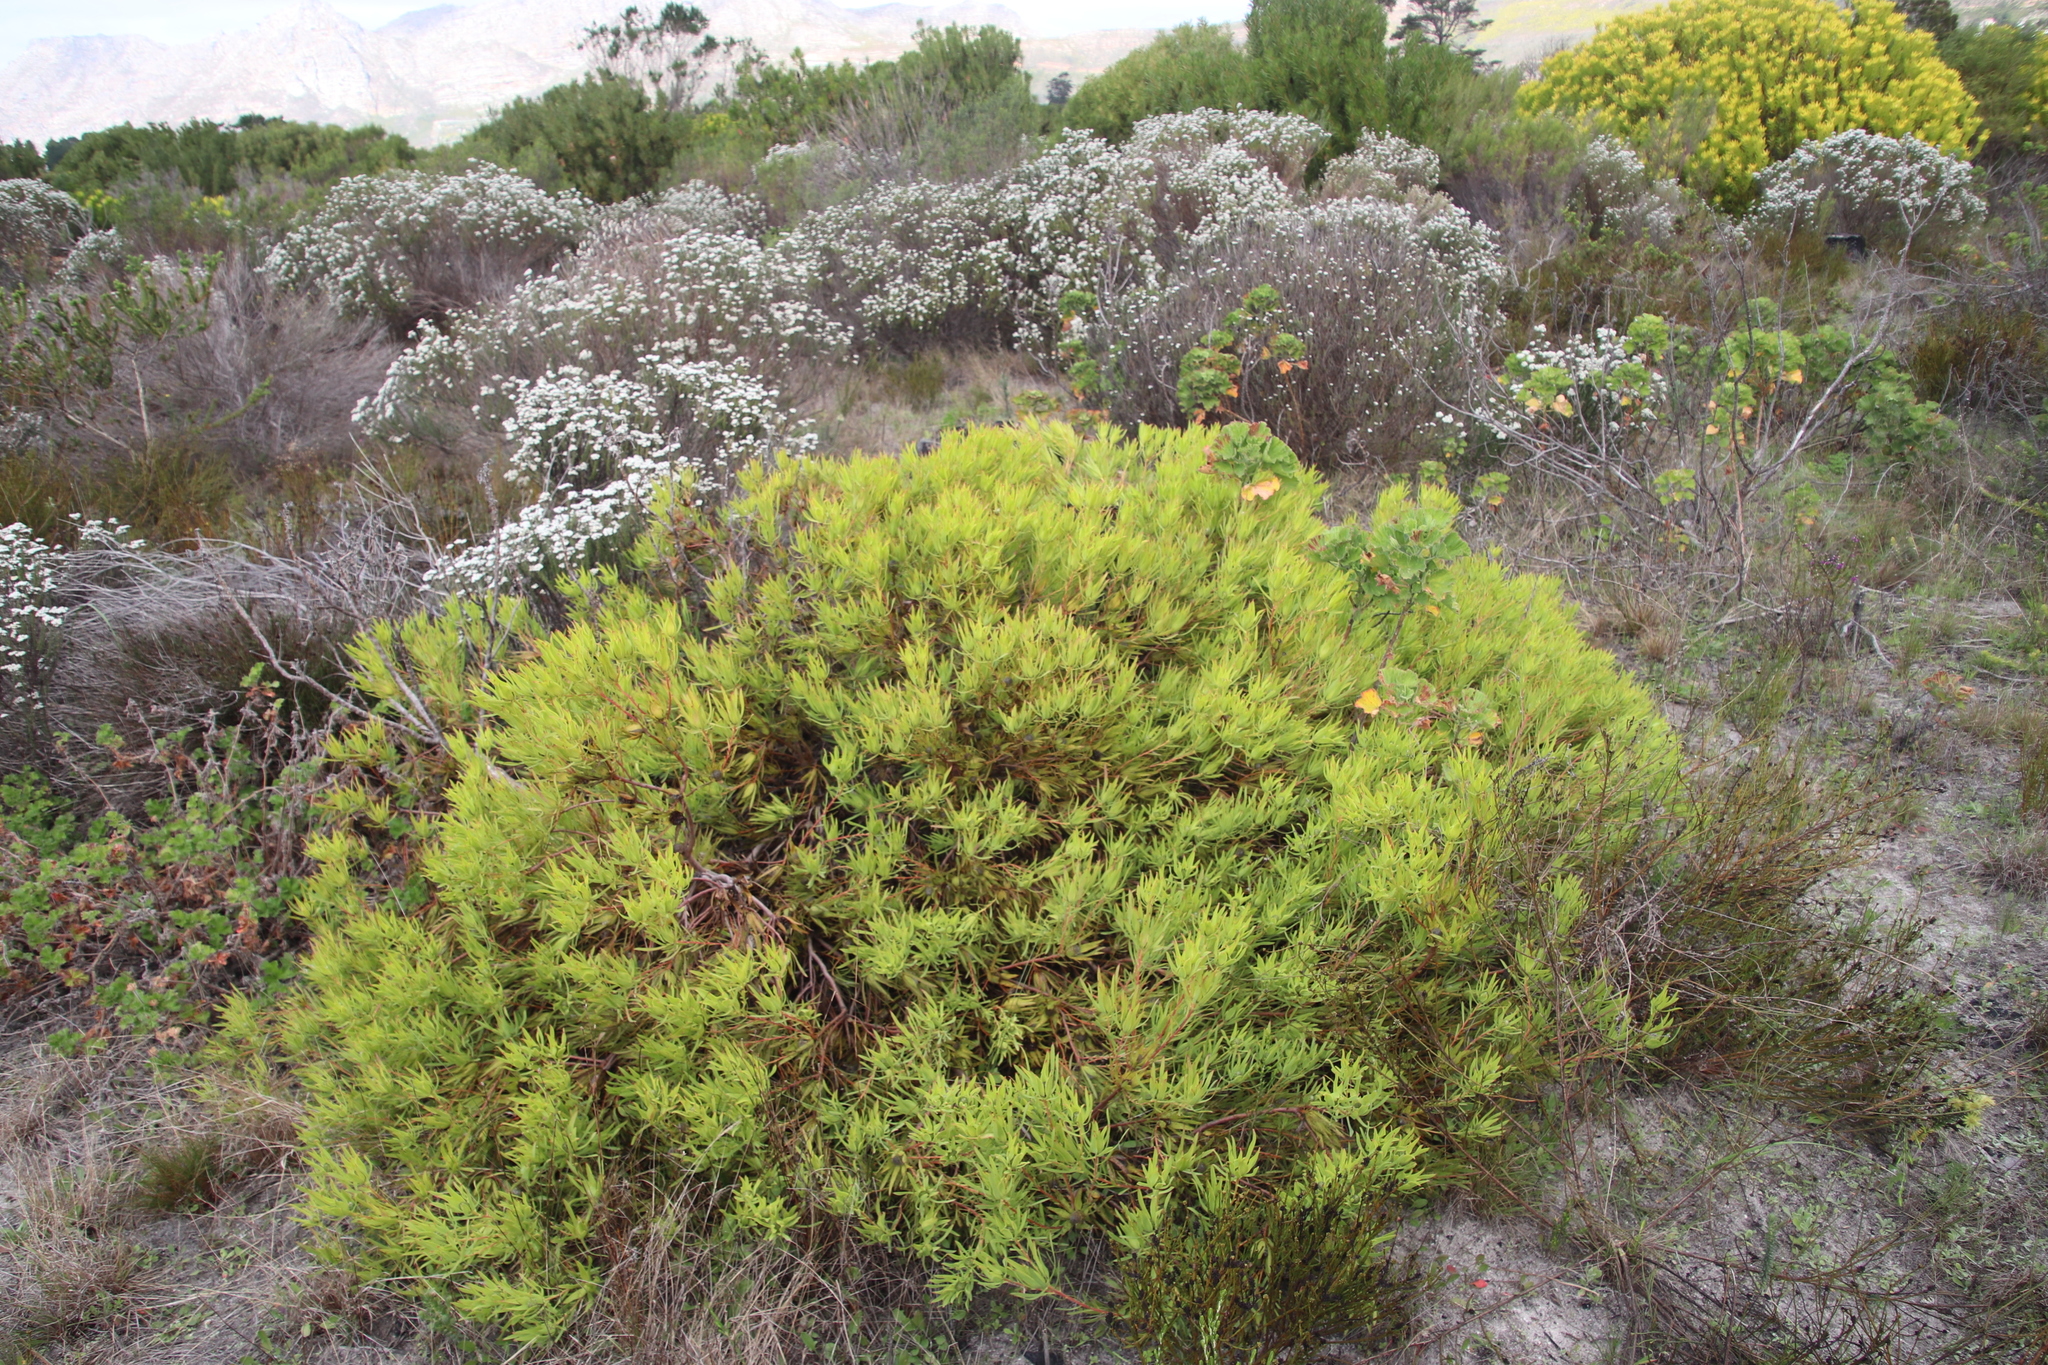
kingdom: Plantae
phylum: Tracheophyta
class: Magnoliopsida
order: Proteales
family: Proteaceae
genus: Leucadendron
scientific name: Leucadendron salignum
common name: Common sunshine conebush
